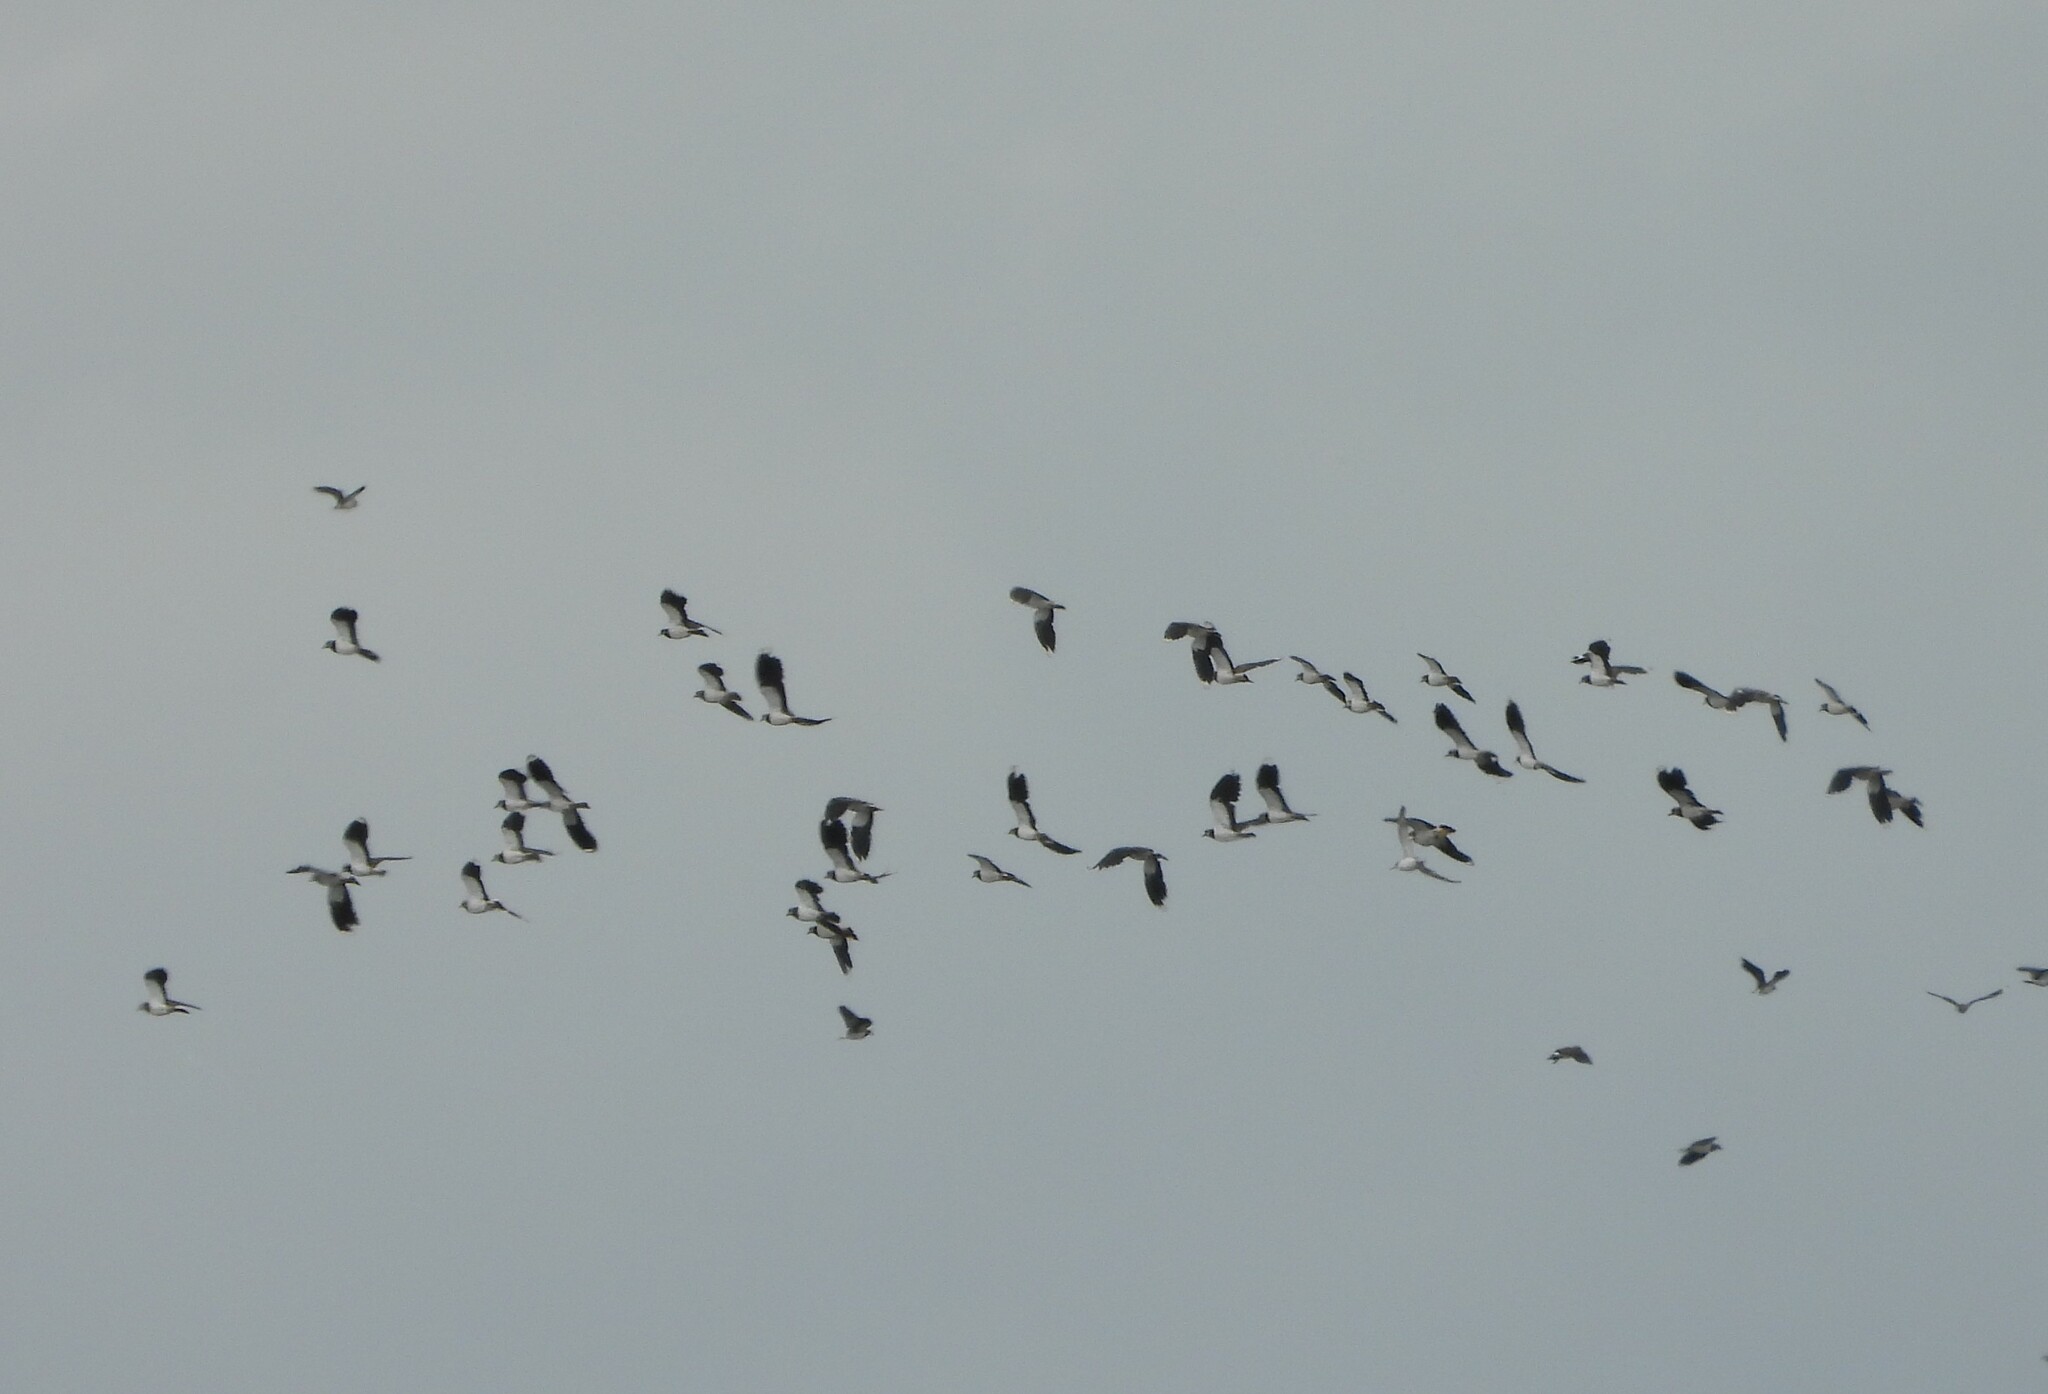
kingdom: Animalia
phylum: Chordata
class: Aves
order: Charadriiformes
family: Charadriidae
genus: Vanellus
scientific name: Vanellus vanellus
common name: Northern lapwing
